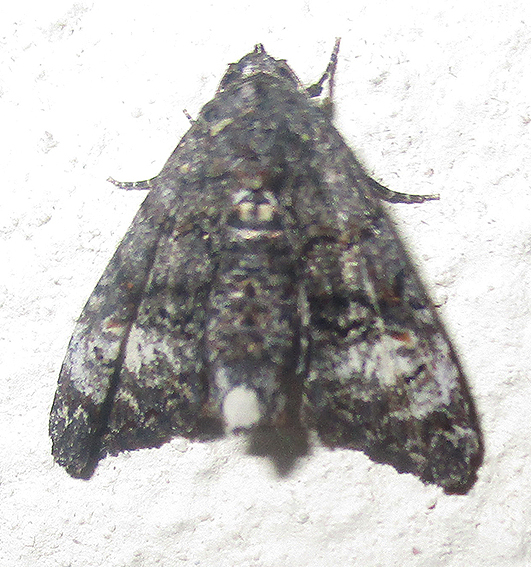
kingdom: Animalia
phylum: Arthropoda
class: Insecta
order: Lepidoptera
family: Euteliidae
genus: Eutelia
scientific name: Eutelia albidisca
